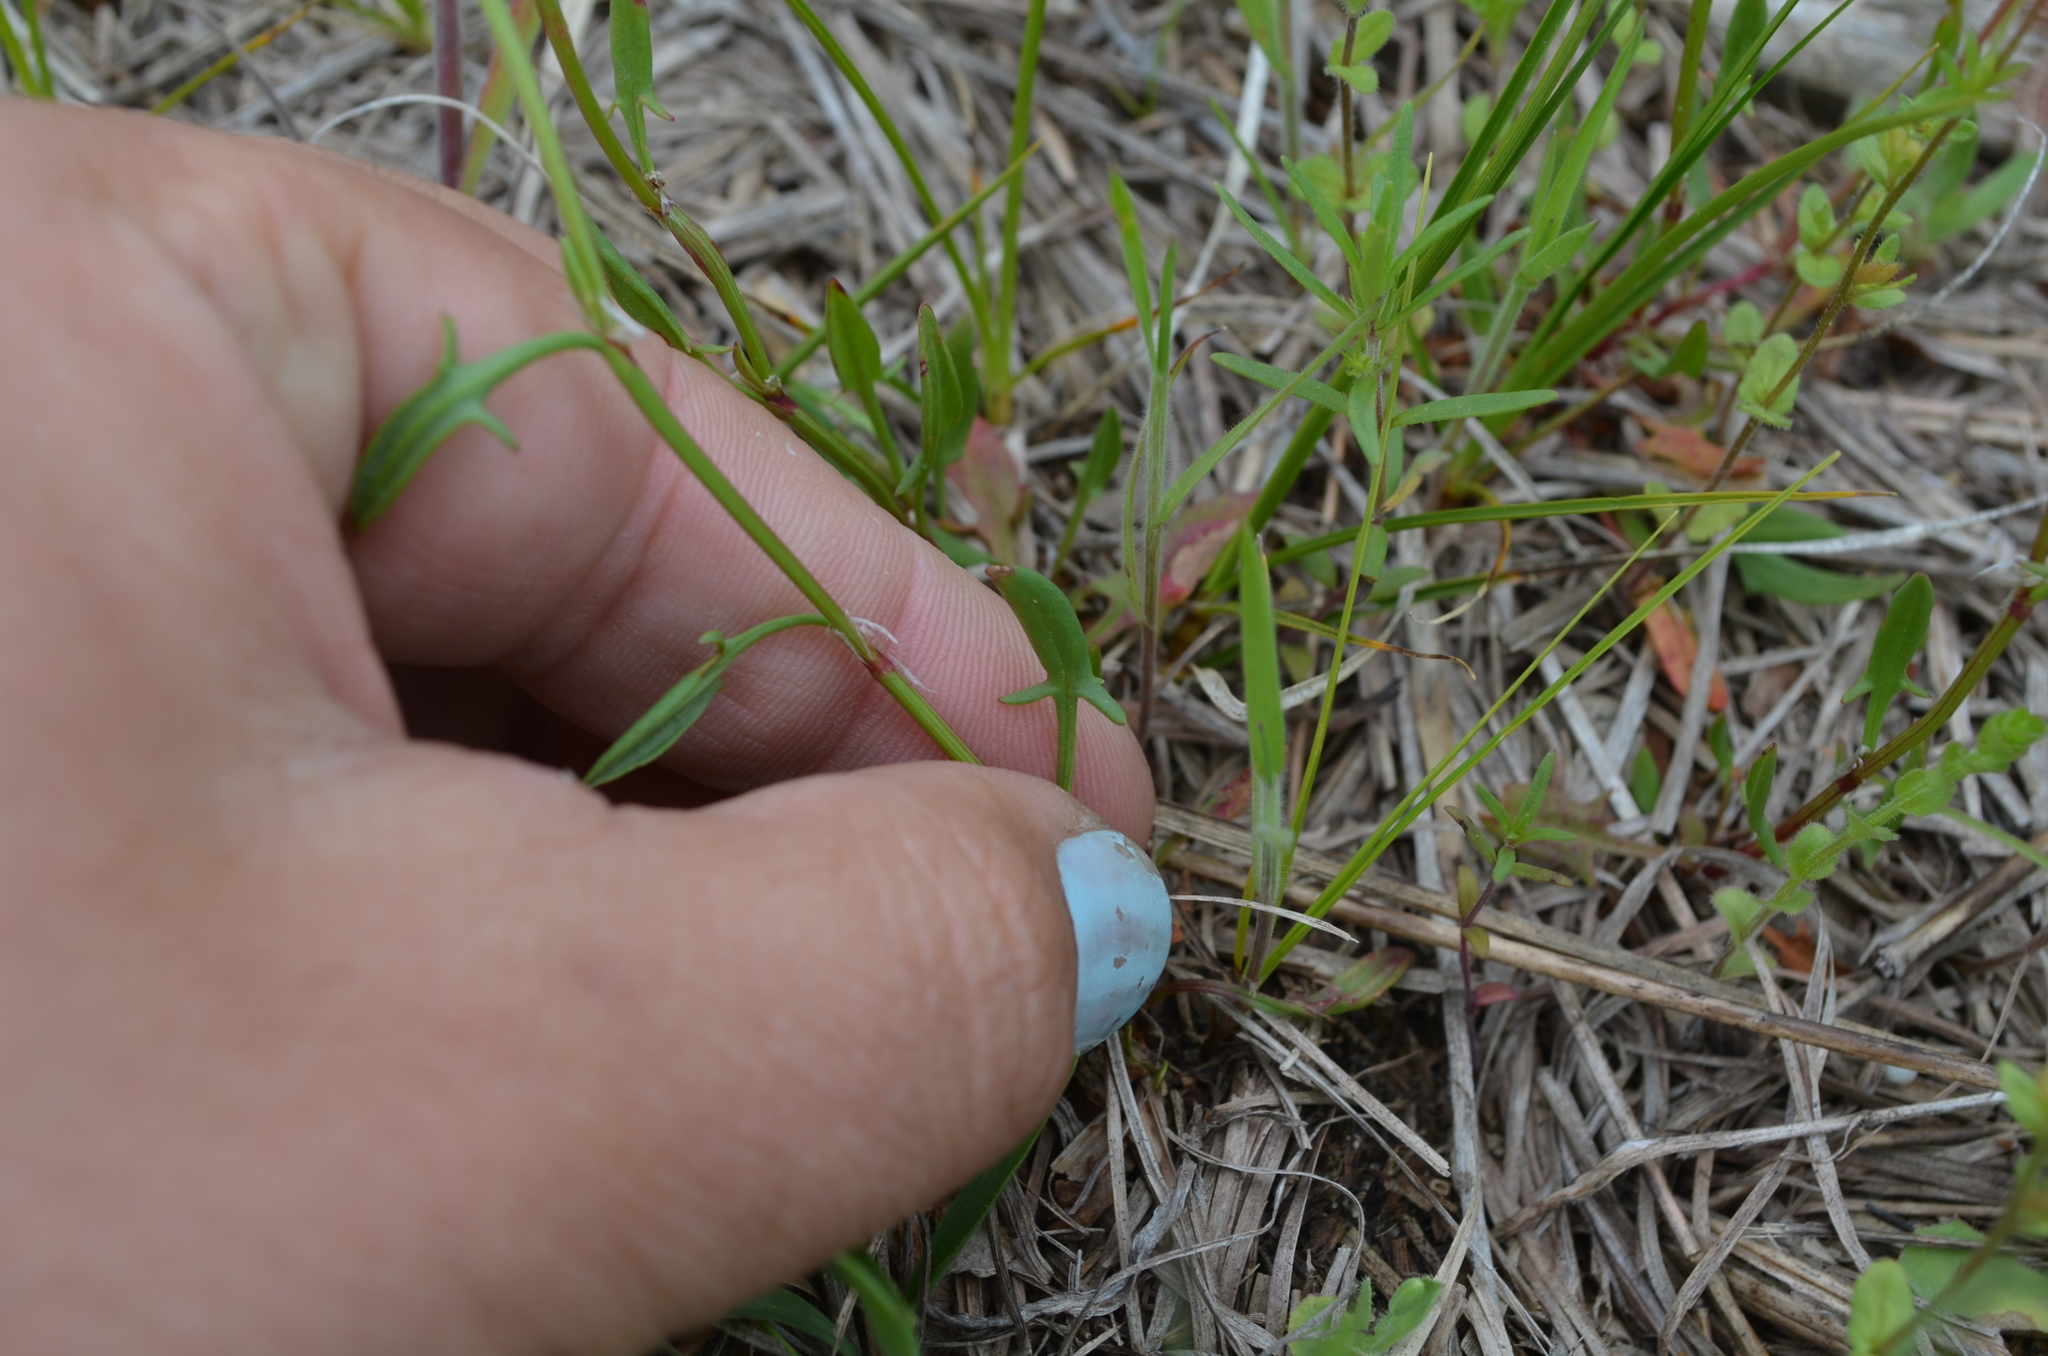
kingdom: Plantae
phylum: Tracheophyta
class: Magnoliopsida
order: Caryophyllales
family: Polygonaceae
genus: Rumex
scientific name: Rumex acetosella
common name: Common sheep sorrel
